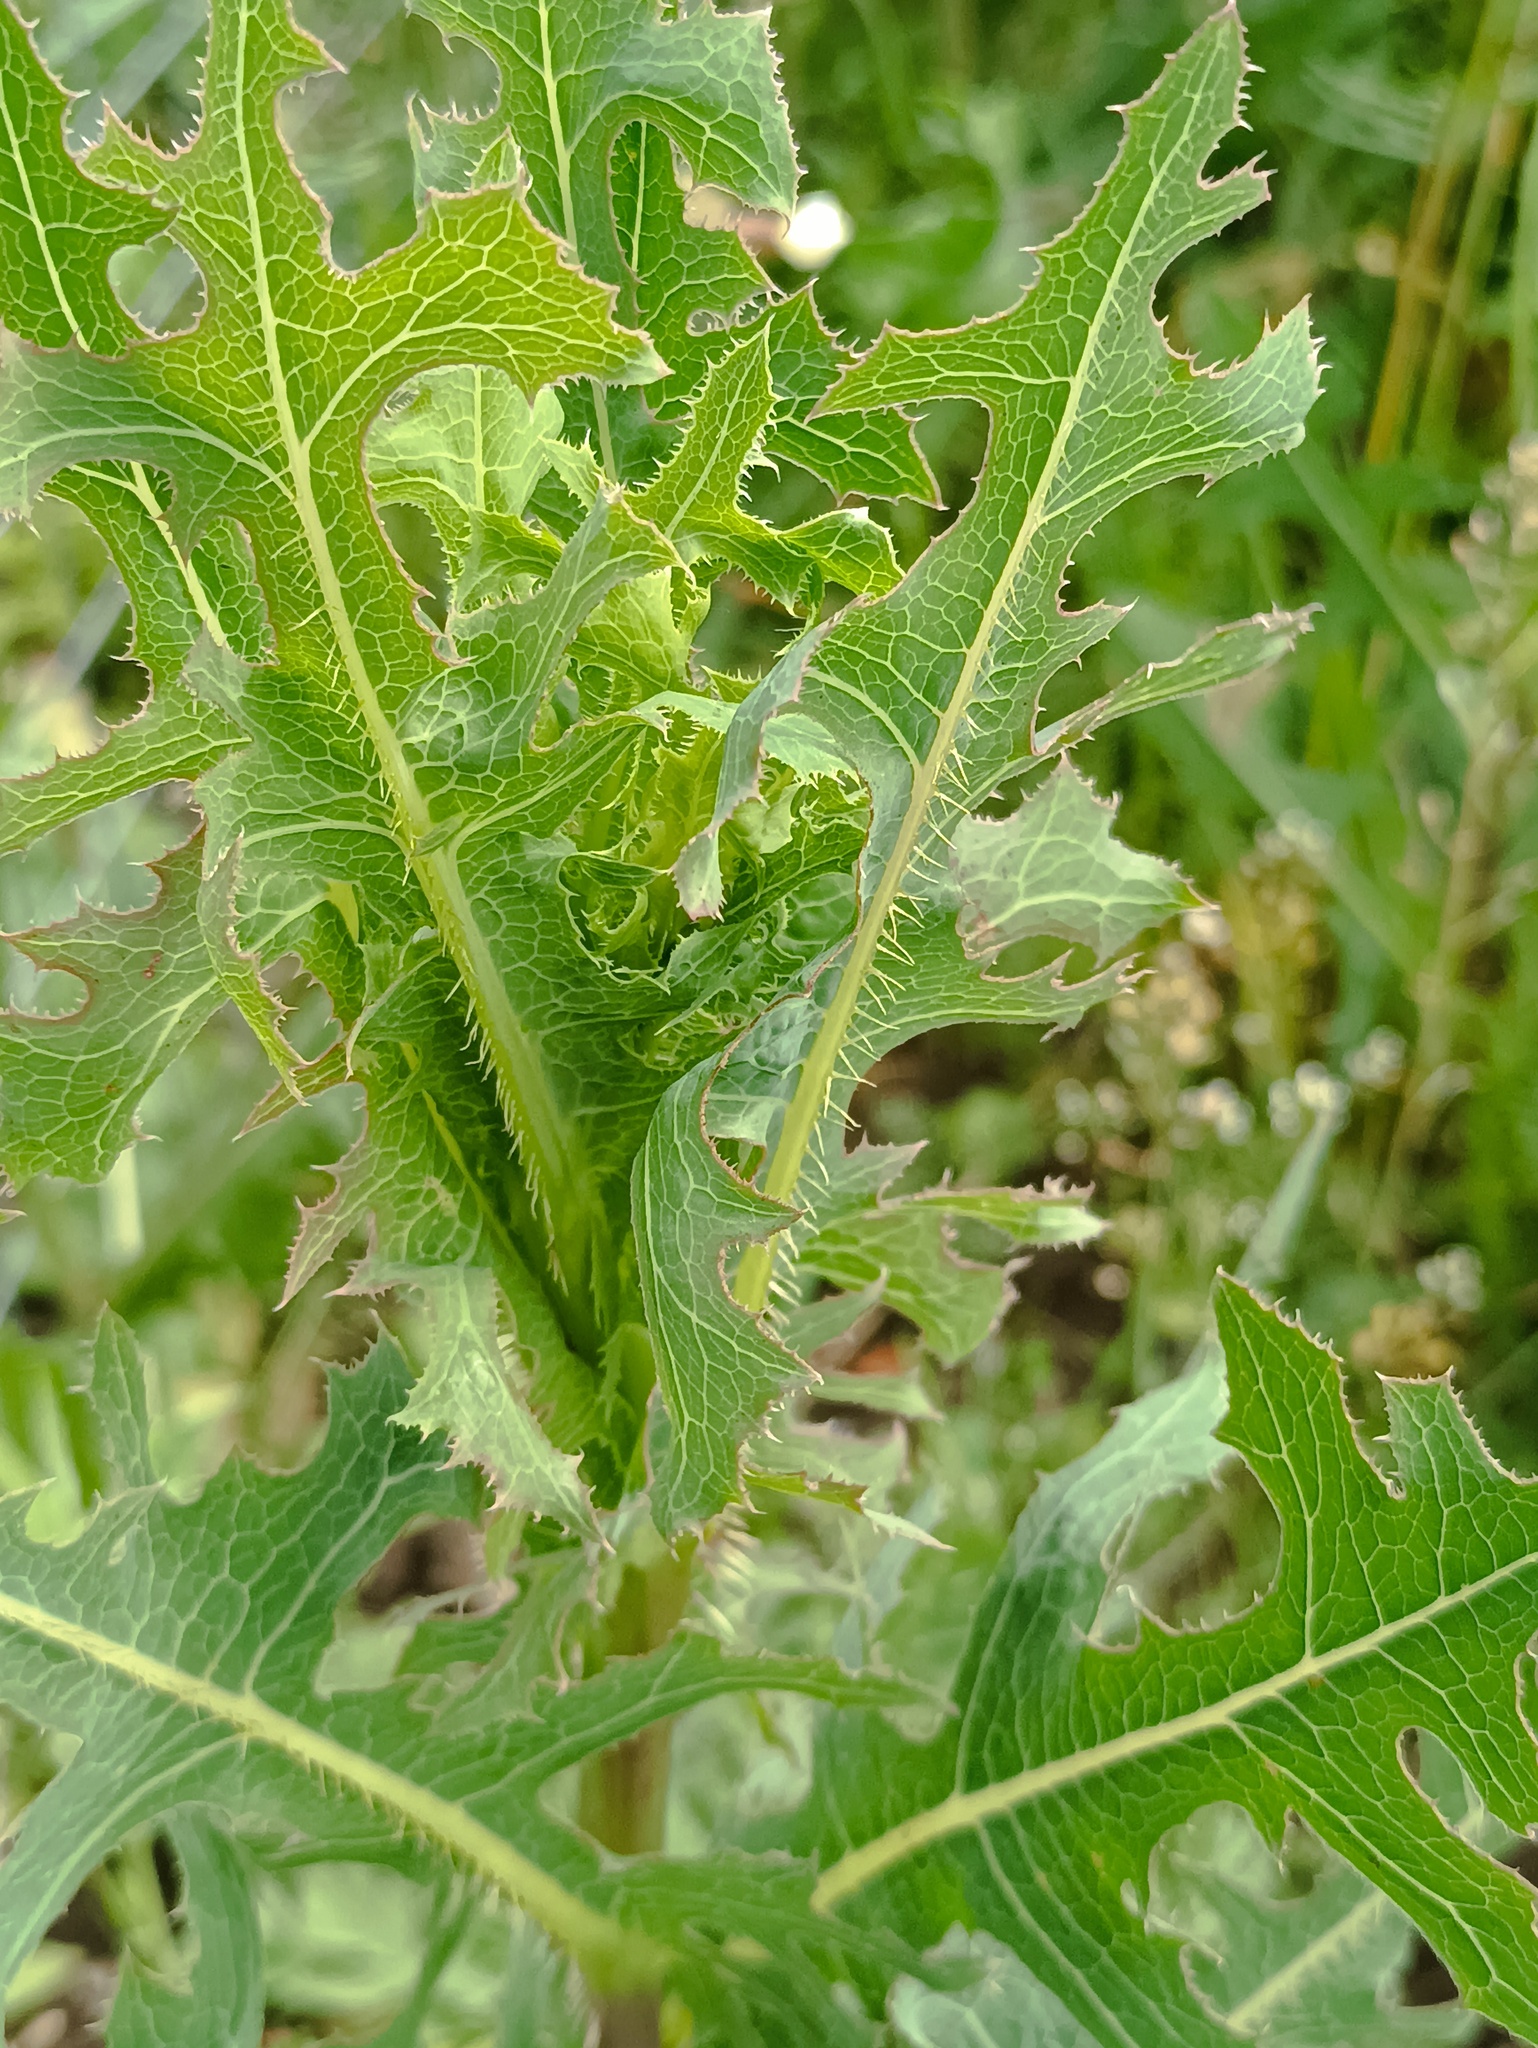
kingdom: Plantae
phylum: Tracheophyta
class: Magnoliopsida
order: Asterales
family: Asteraceae
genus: Lactuca
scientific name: Lactuca serriola
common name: Prickly lettuce
